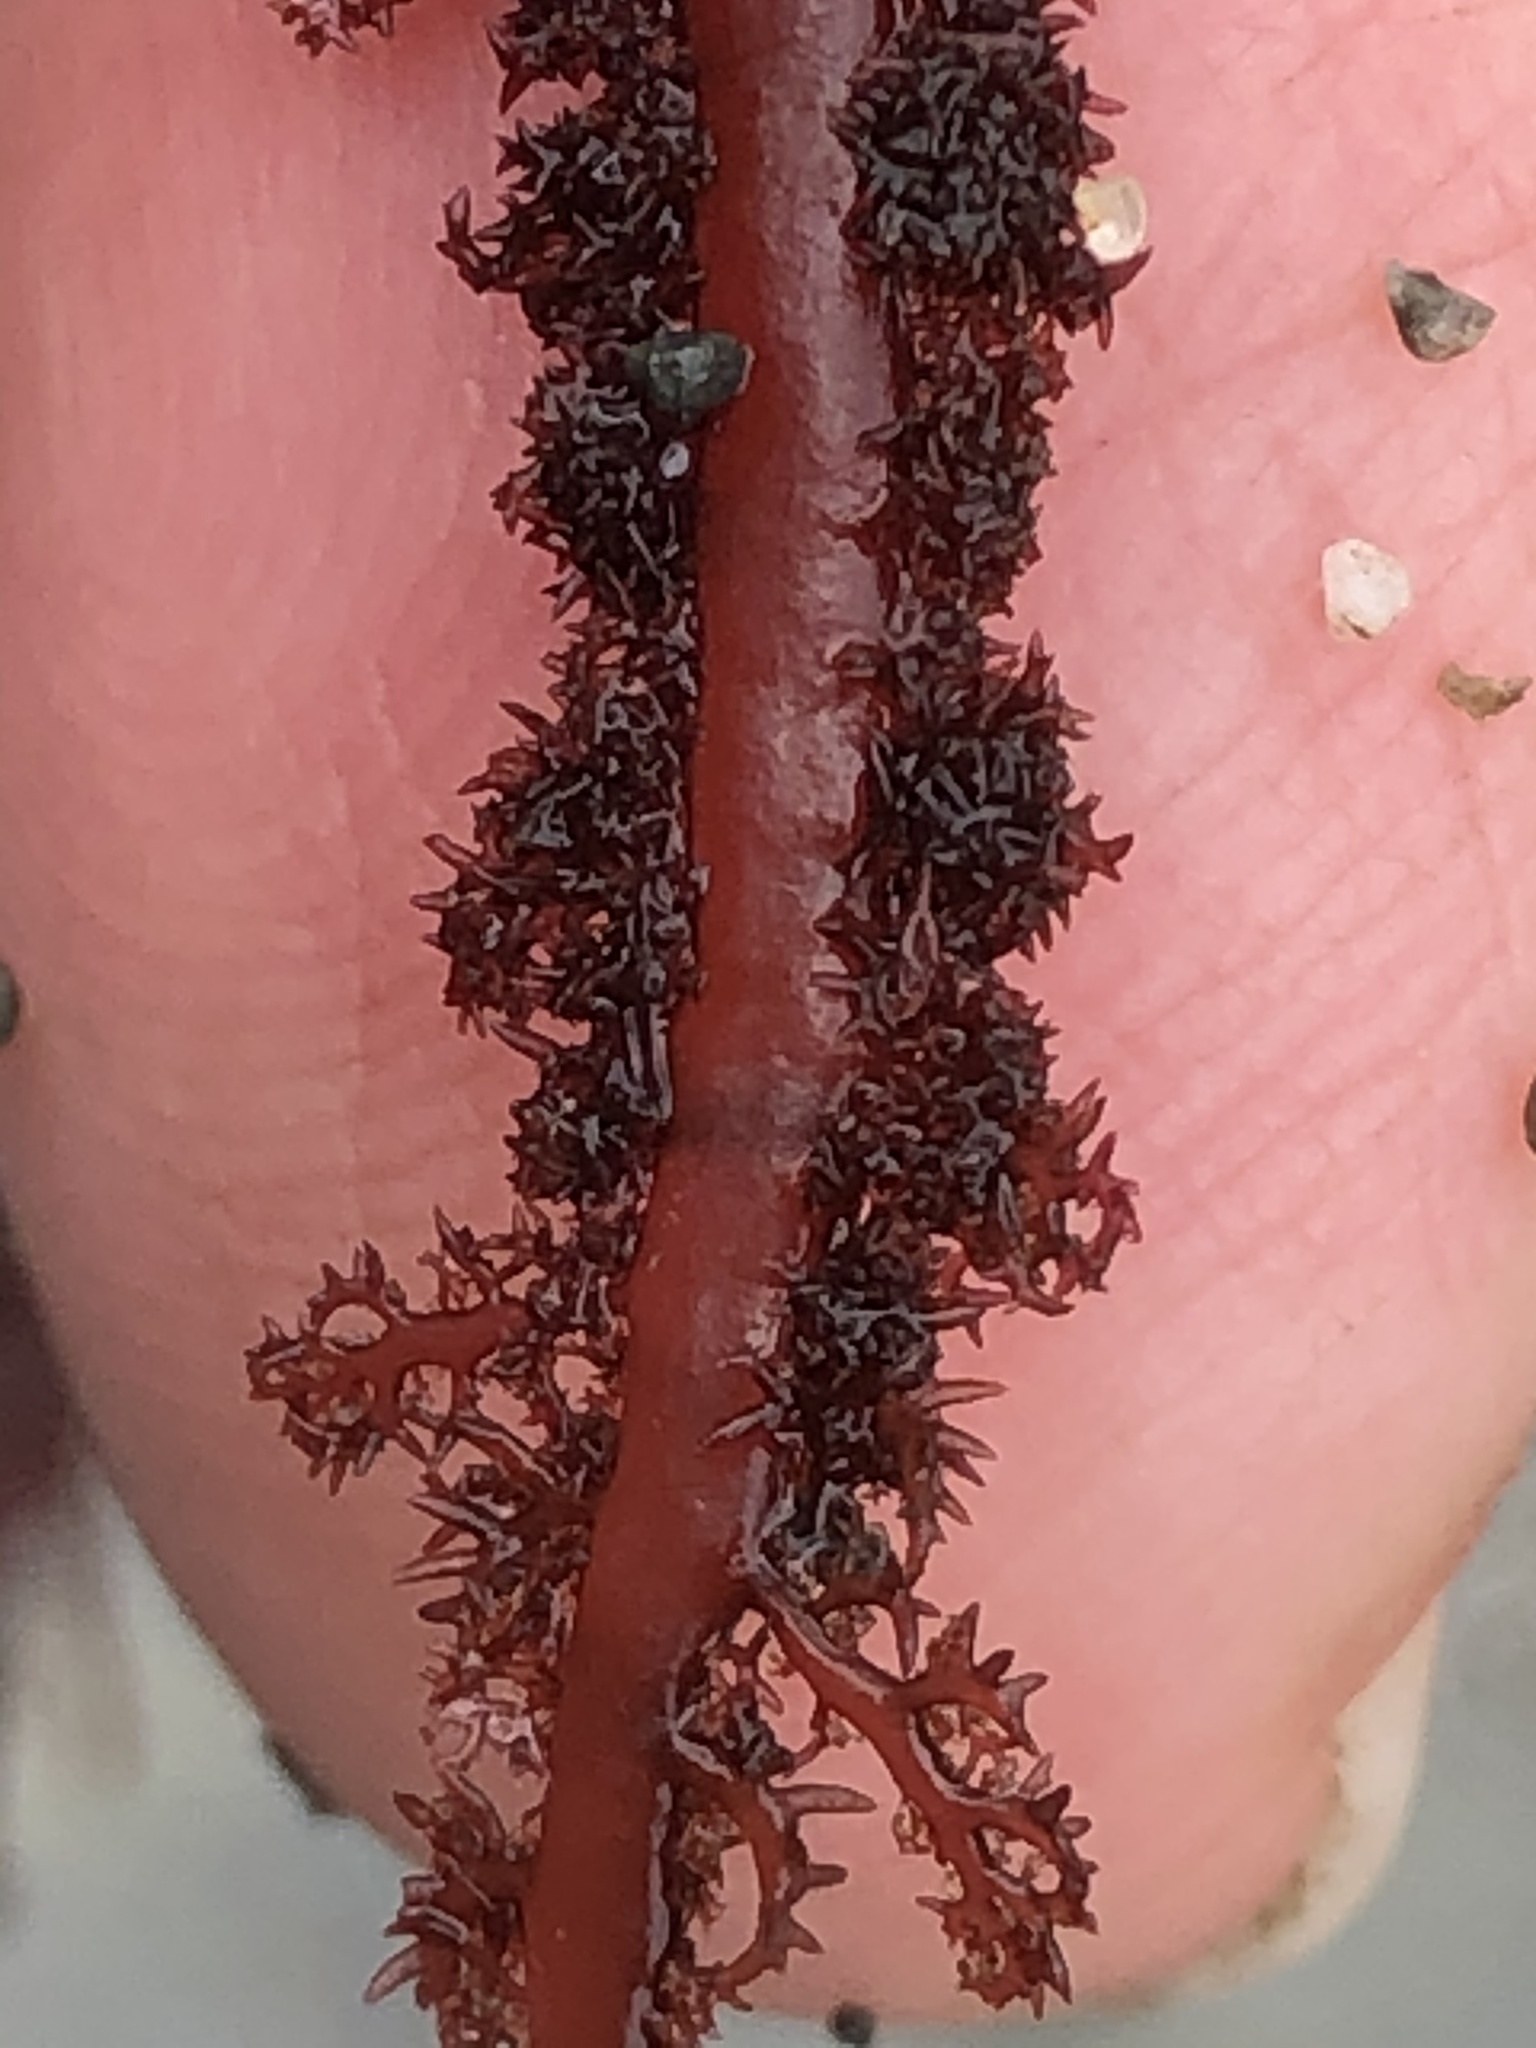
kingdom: Plantae
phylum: Rhodophyta
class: Florideophyceae
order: Ceramiales
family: Wrangeliaceae
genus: Neoptilota
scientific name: Neoptilota densa
